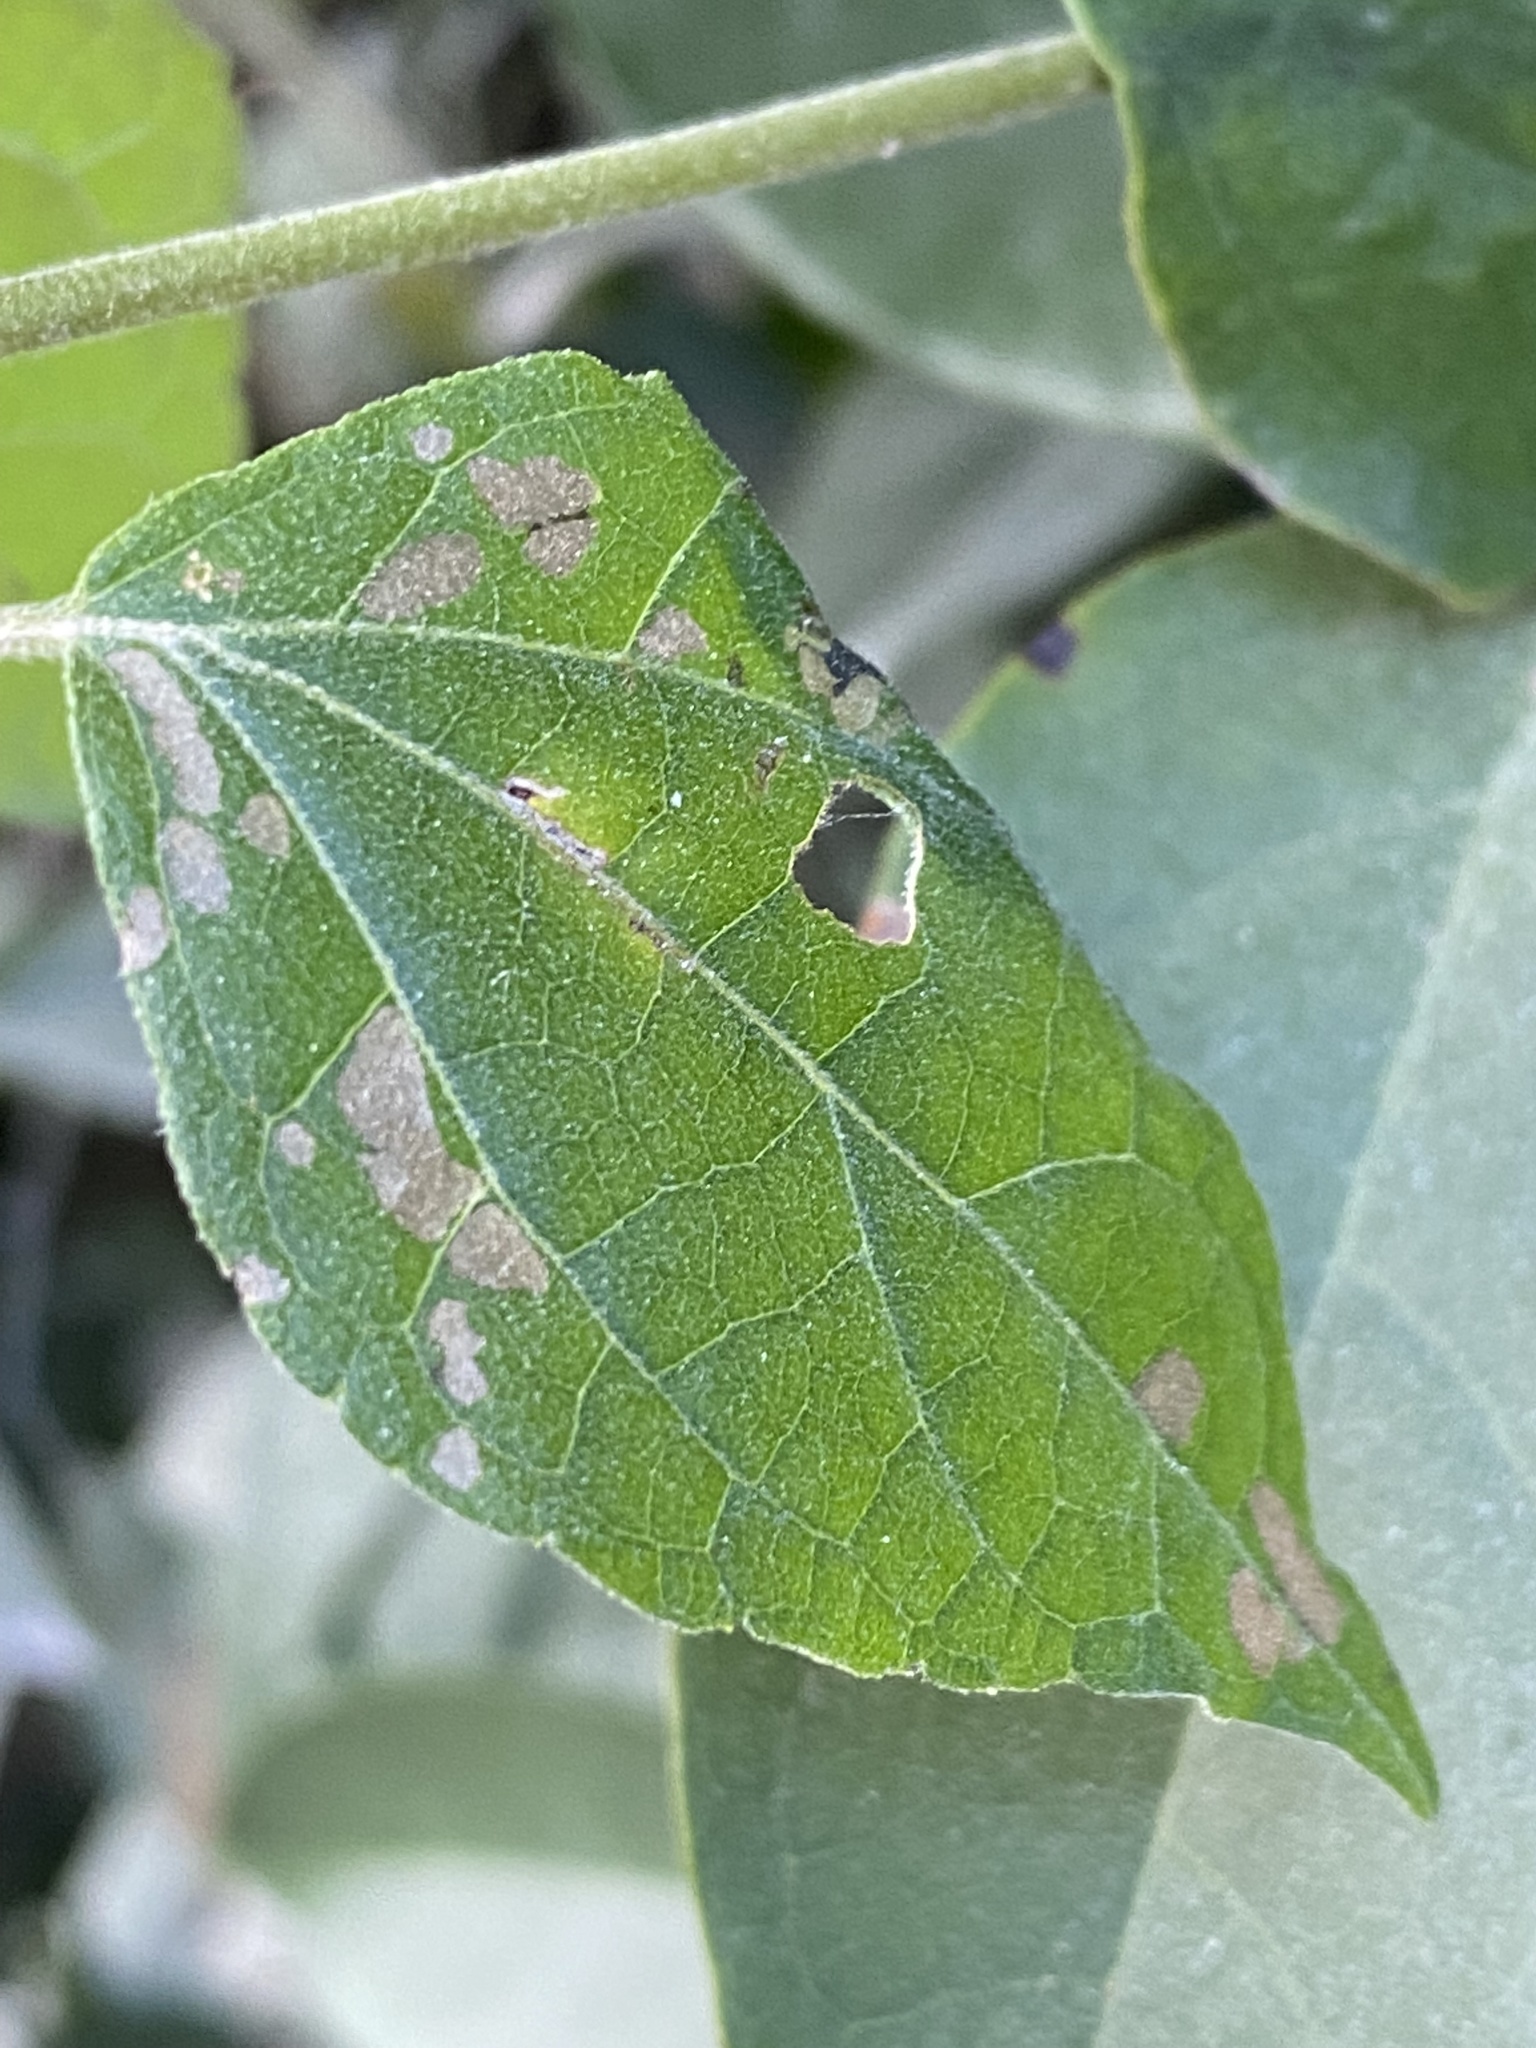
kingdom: Plantae
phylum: Tracheophyta
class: Magnoliopsida
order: Asterales
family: Asteraceae
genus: Montanoa
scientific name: Montanoa atriplicifolia
